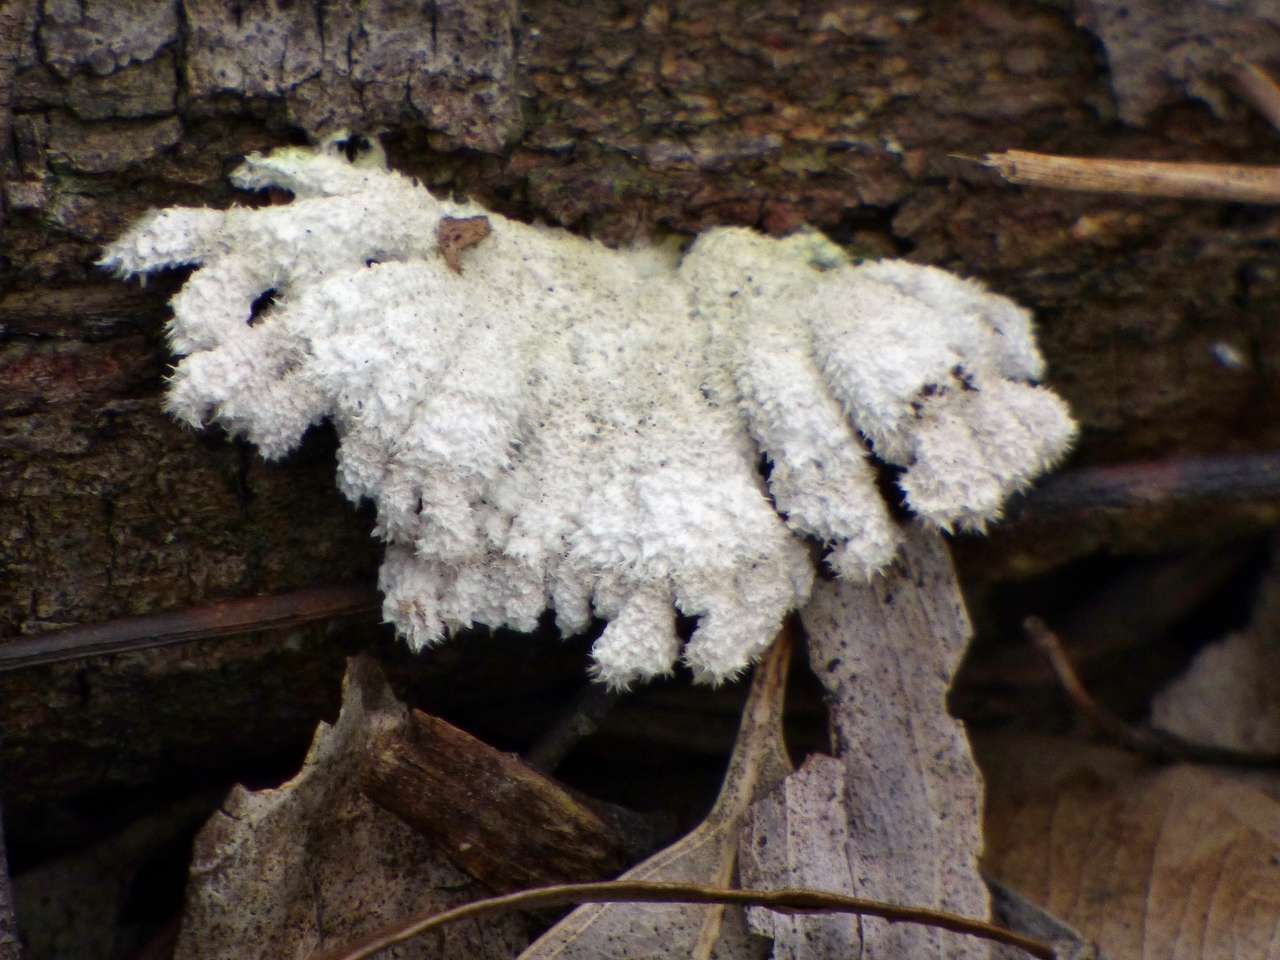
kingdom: Fungi
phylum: Basidiomycota
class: Agaricomycetes
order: Agaricales
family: Schizophyllaceae
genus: Schizophyllum
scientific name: Schizophyllum commune
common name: Common porecrust
